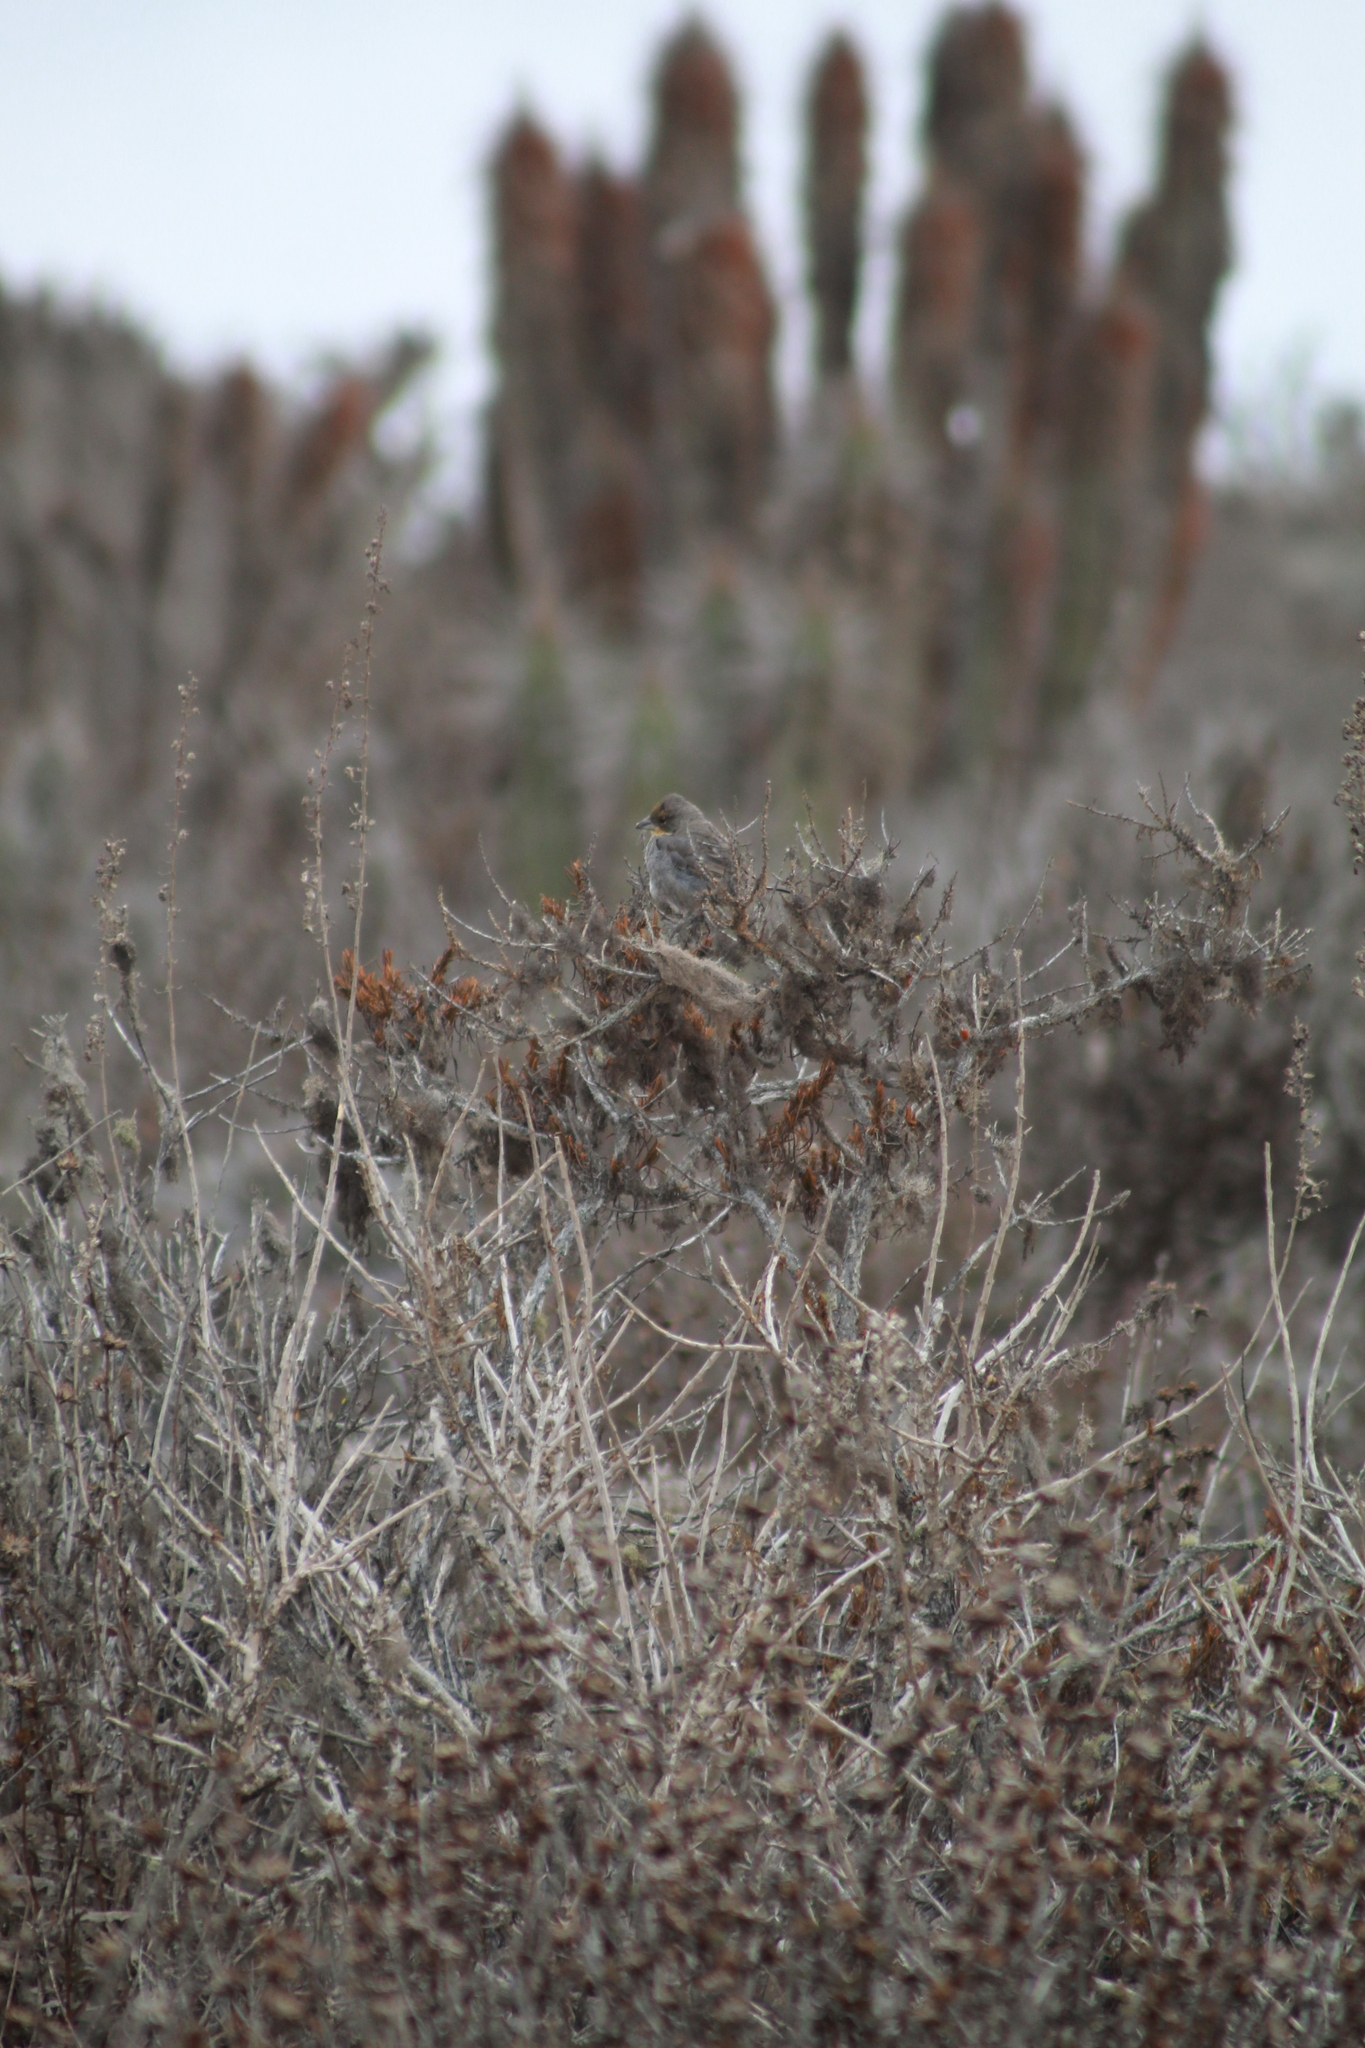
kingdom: Animalia
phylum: Chordata
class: Aves
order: Passeriformes
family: Thraupidae
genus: Diuca
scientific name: Diuca diuca
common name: Common diuca finch
